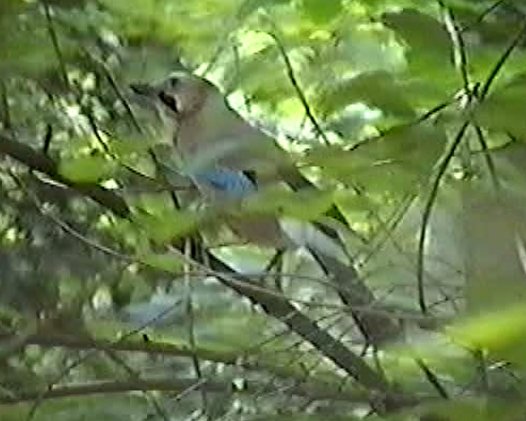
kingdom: Animalia
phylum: Chordata
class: Aves
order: Passeriformes
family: Corvidae
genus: Garrulus
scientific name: Garrulus glandarius
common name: Eurasian jay
